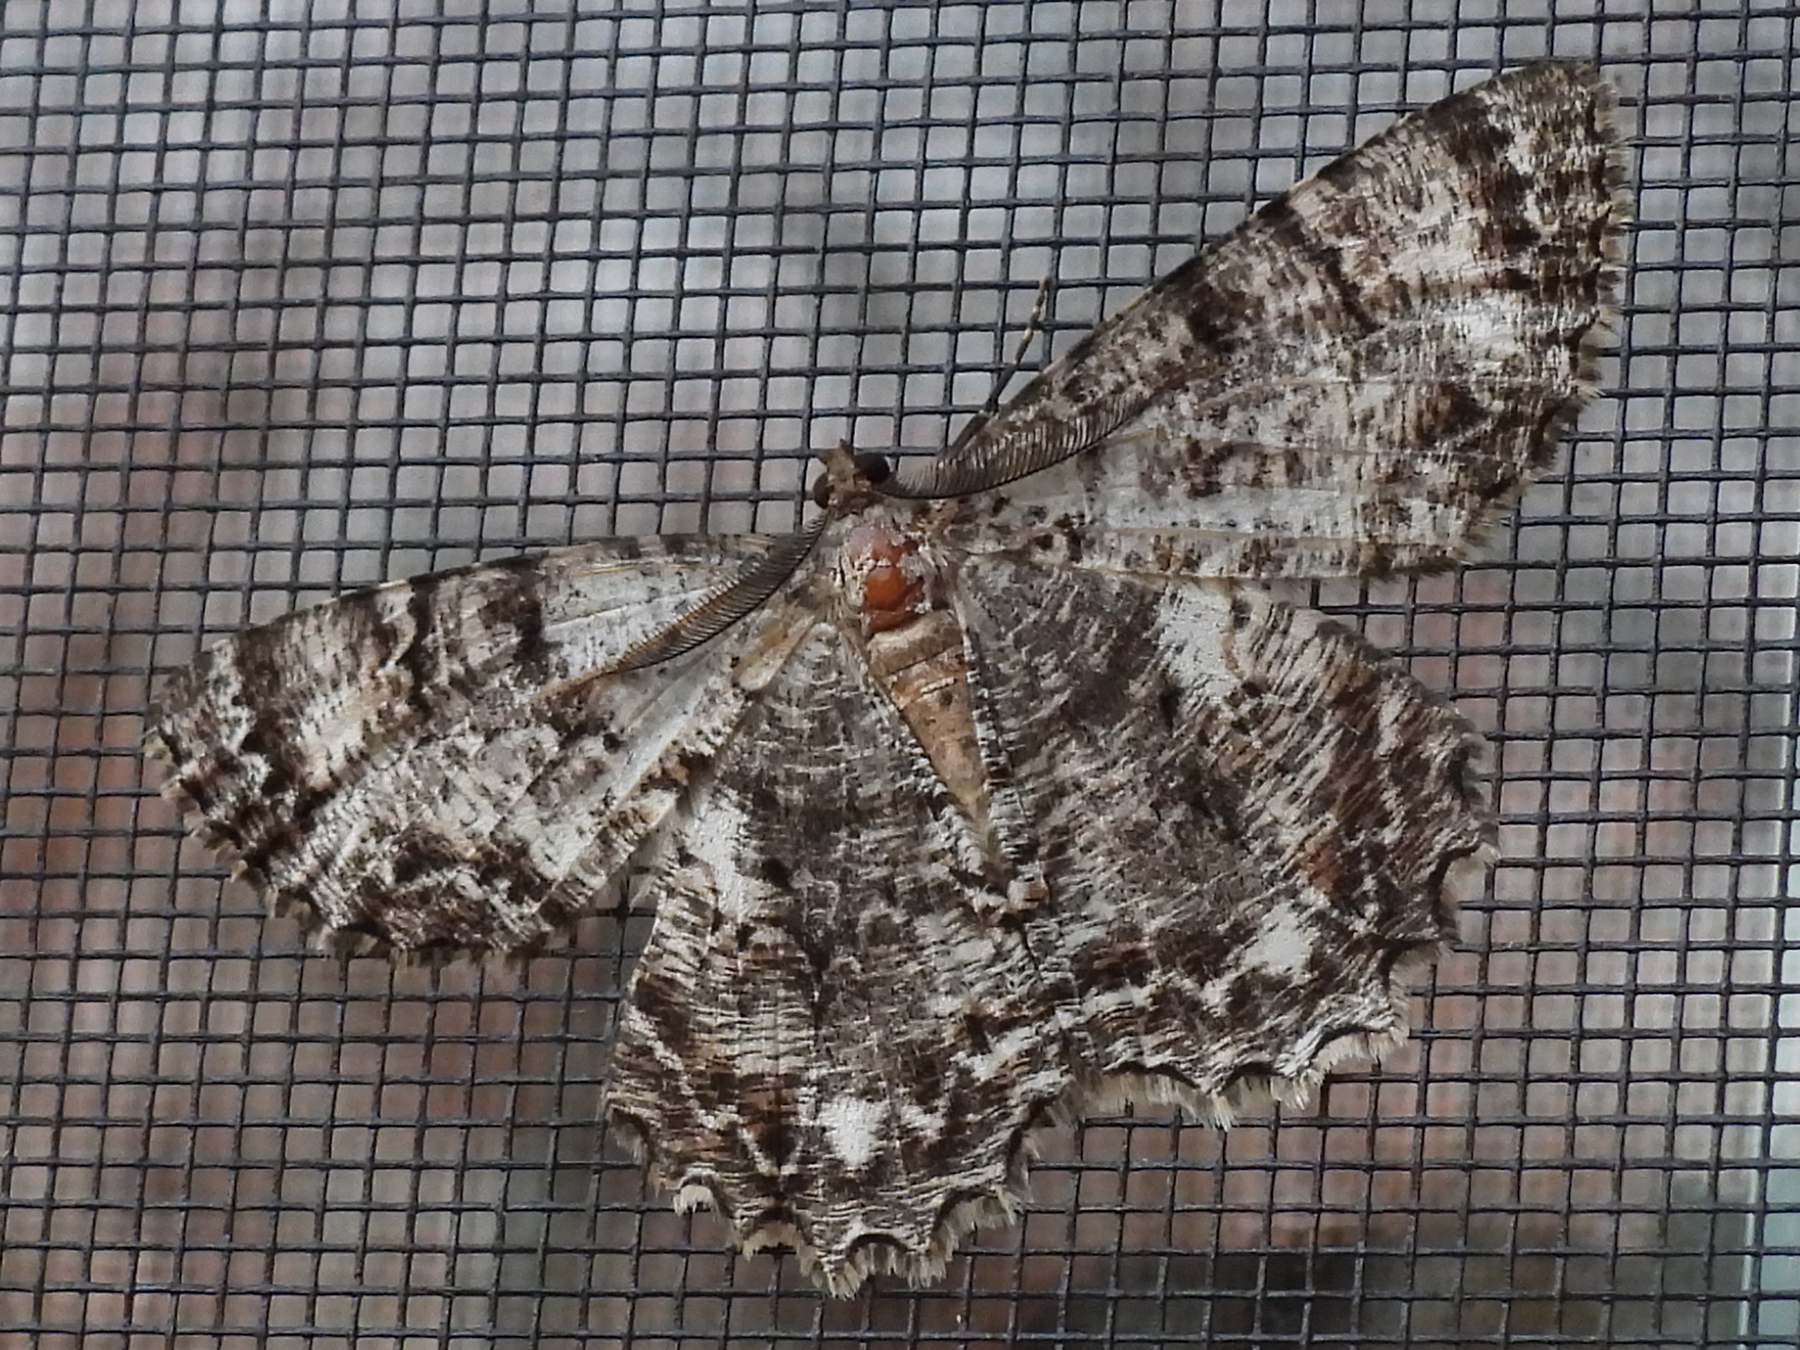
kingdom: Animalia
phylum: Arthropoda
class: Insecta
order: Lepidoptera
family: Geometridae
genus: Epimecis
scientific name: Epimecis hortaria
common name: Tulip-tree beauty
